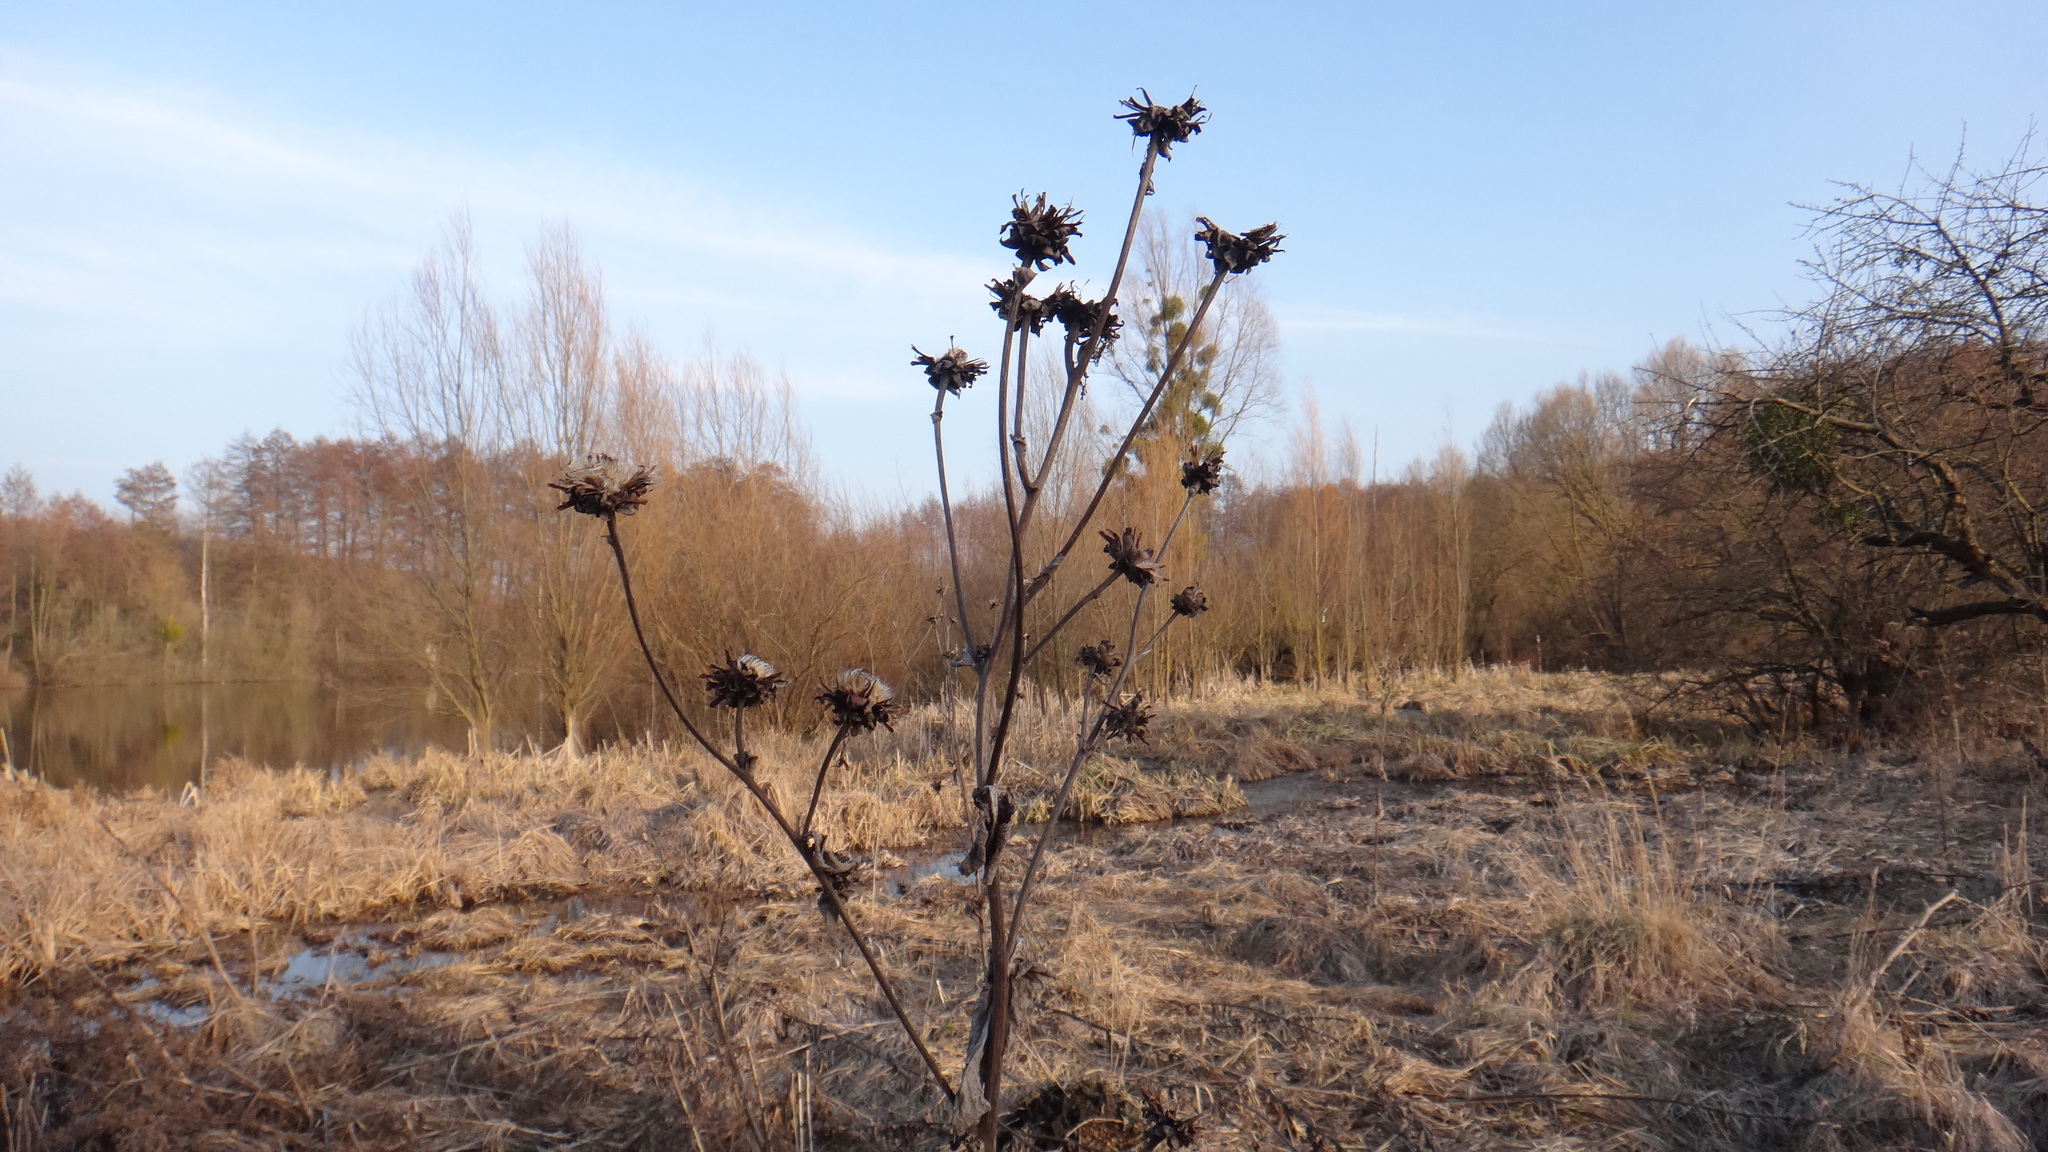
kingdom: Plantae
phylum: Tracheophyta
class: Magnoliopsida
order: Asterales
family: Asteraceae
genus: Inula
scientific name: Inula helenium
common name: Elecampane
